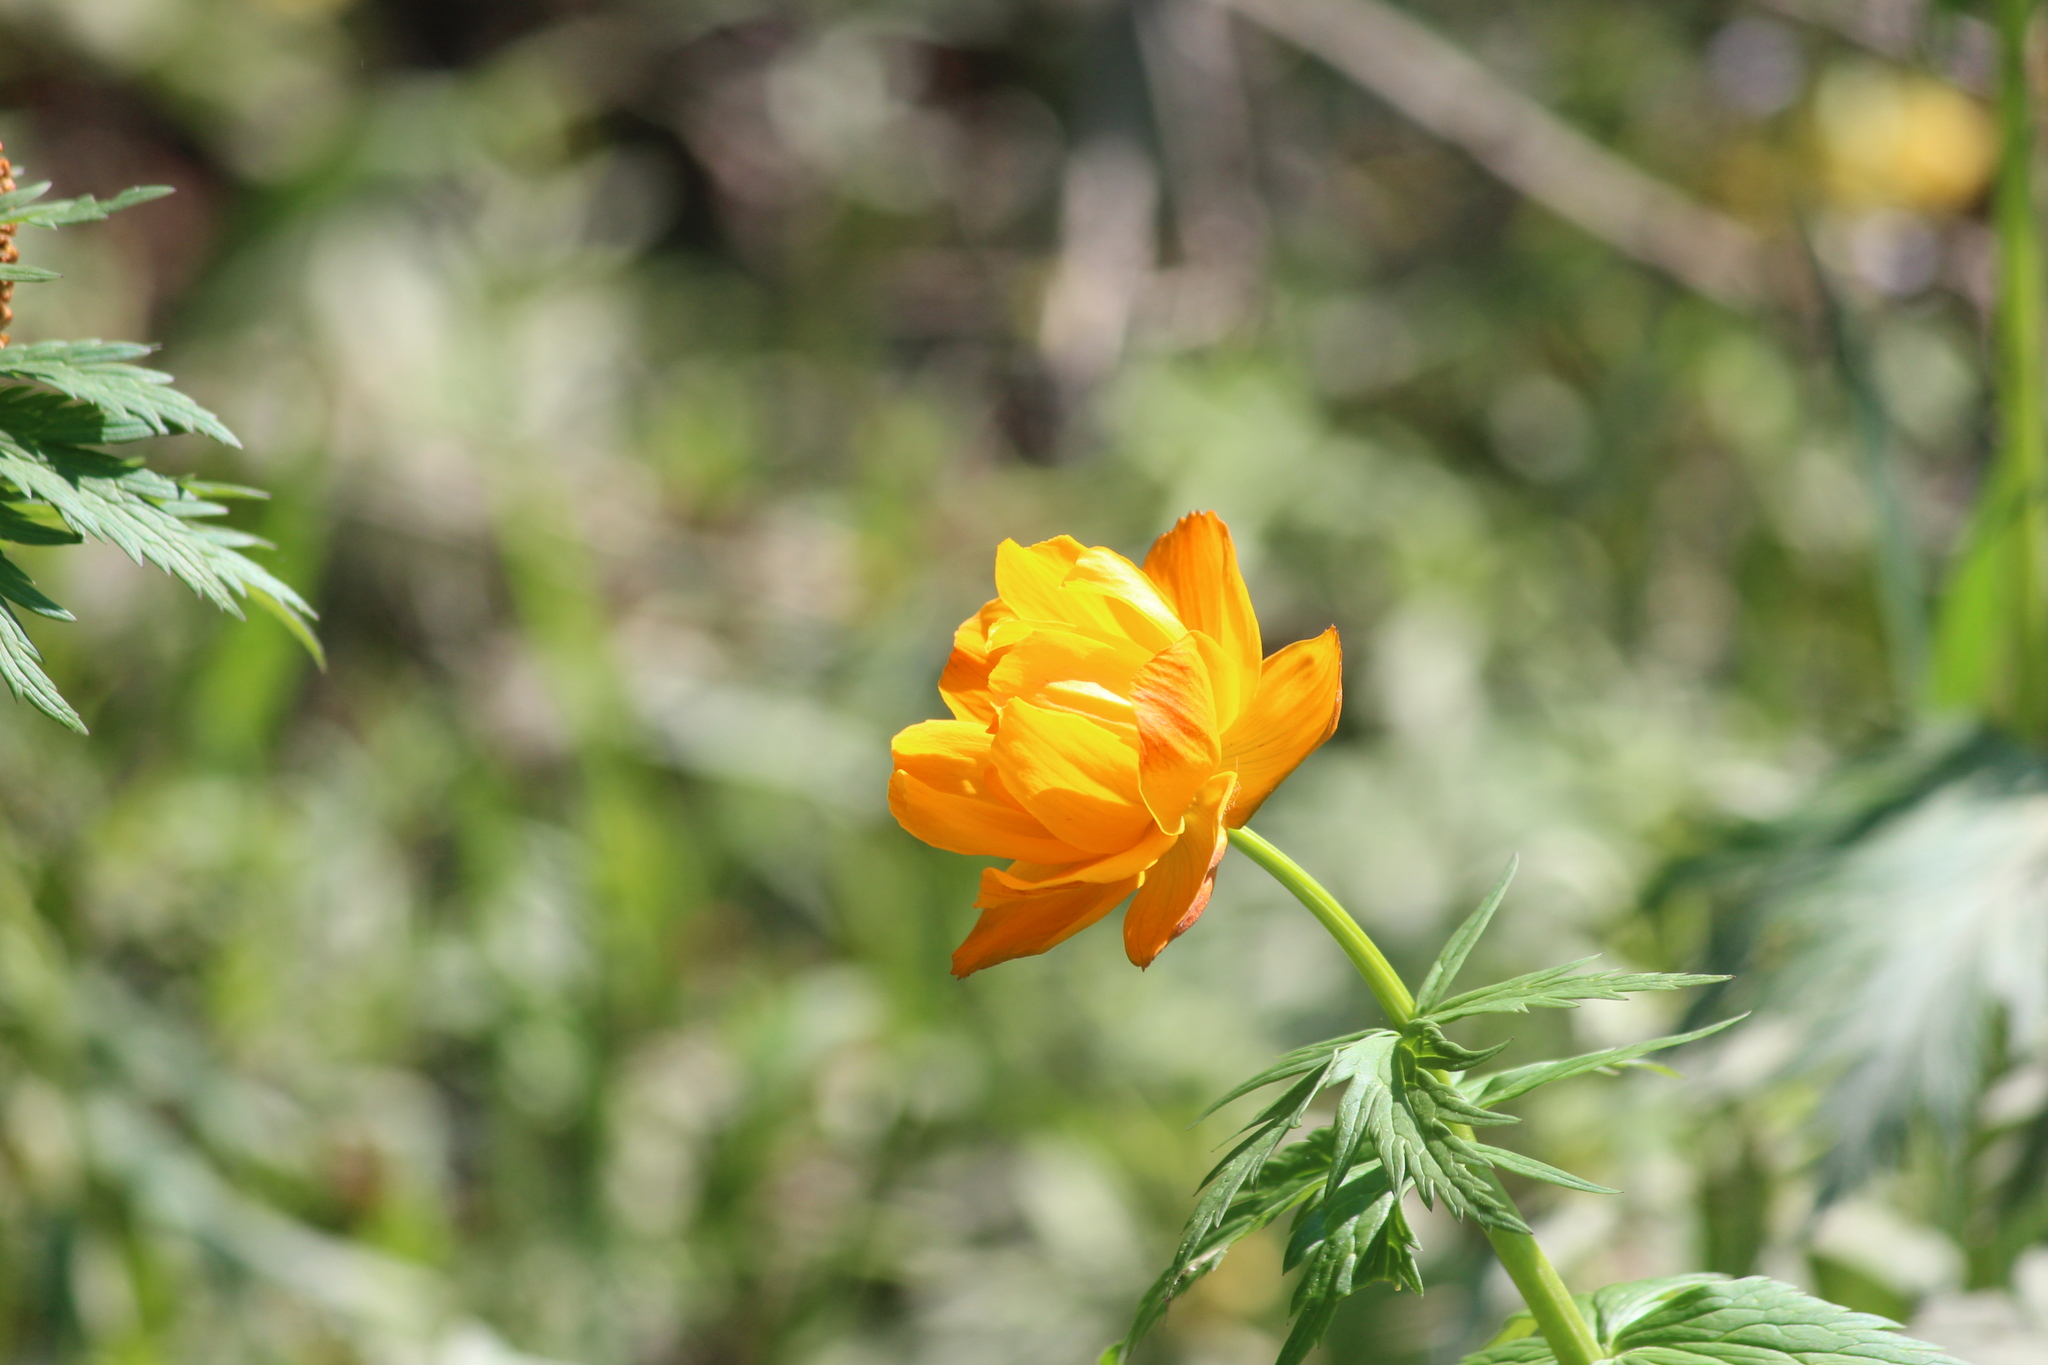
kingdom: Plantae
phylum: Tracheophyta
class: Magnoliopsida
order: Ranunculales
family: Ranunculaceae
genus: Trollius
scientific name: Trollius asiaticus
